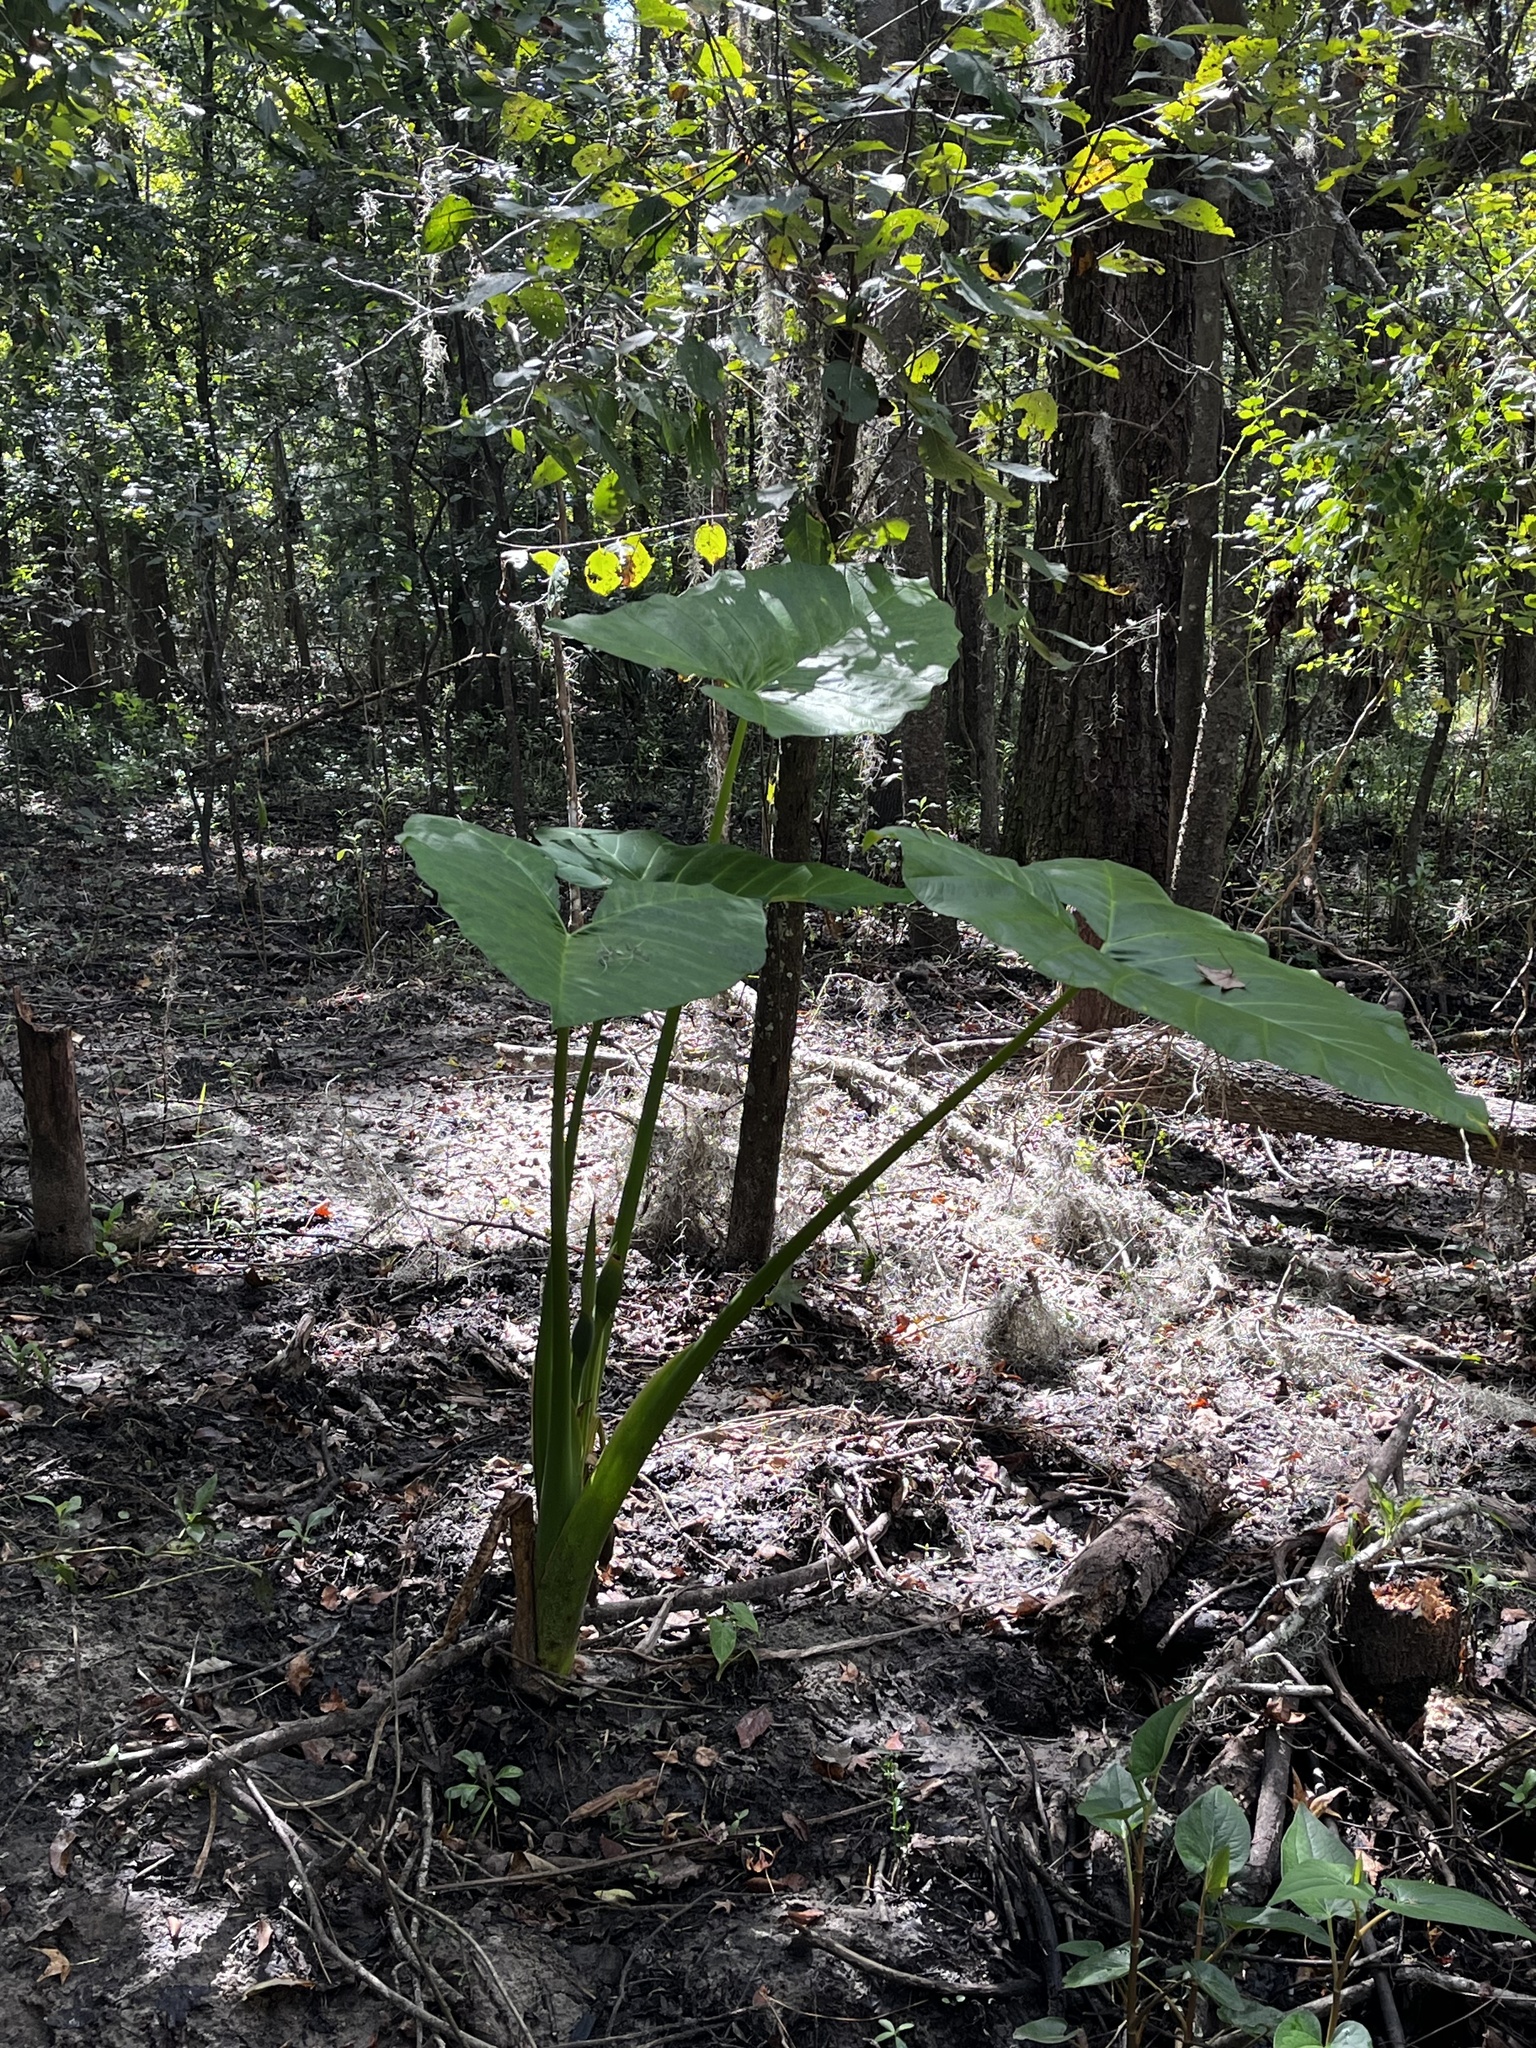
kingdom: Plantae
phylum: Tracheophyta
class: Liliopsida
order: Alismatales
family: Araceae
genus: Xanthosoma
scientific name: Xanthosoma sagittifolium
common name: Arrowleaf elephant's ear
